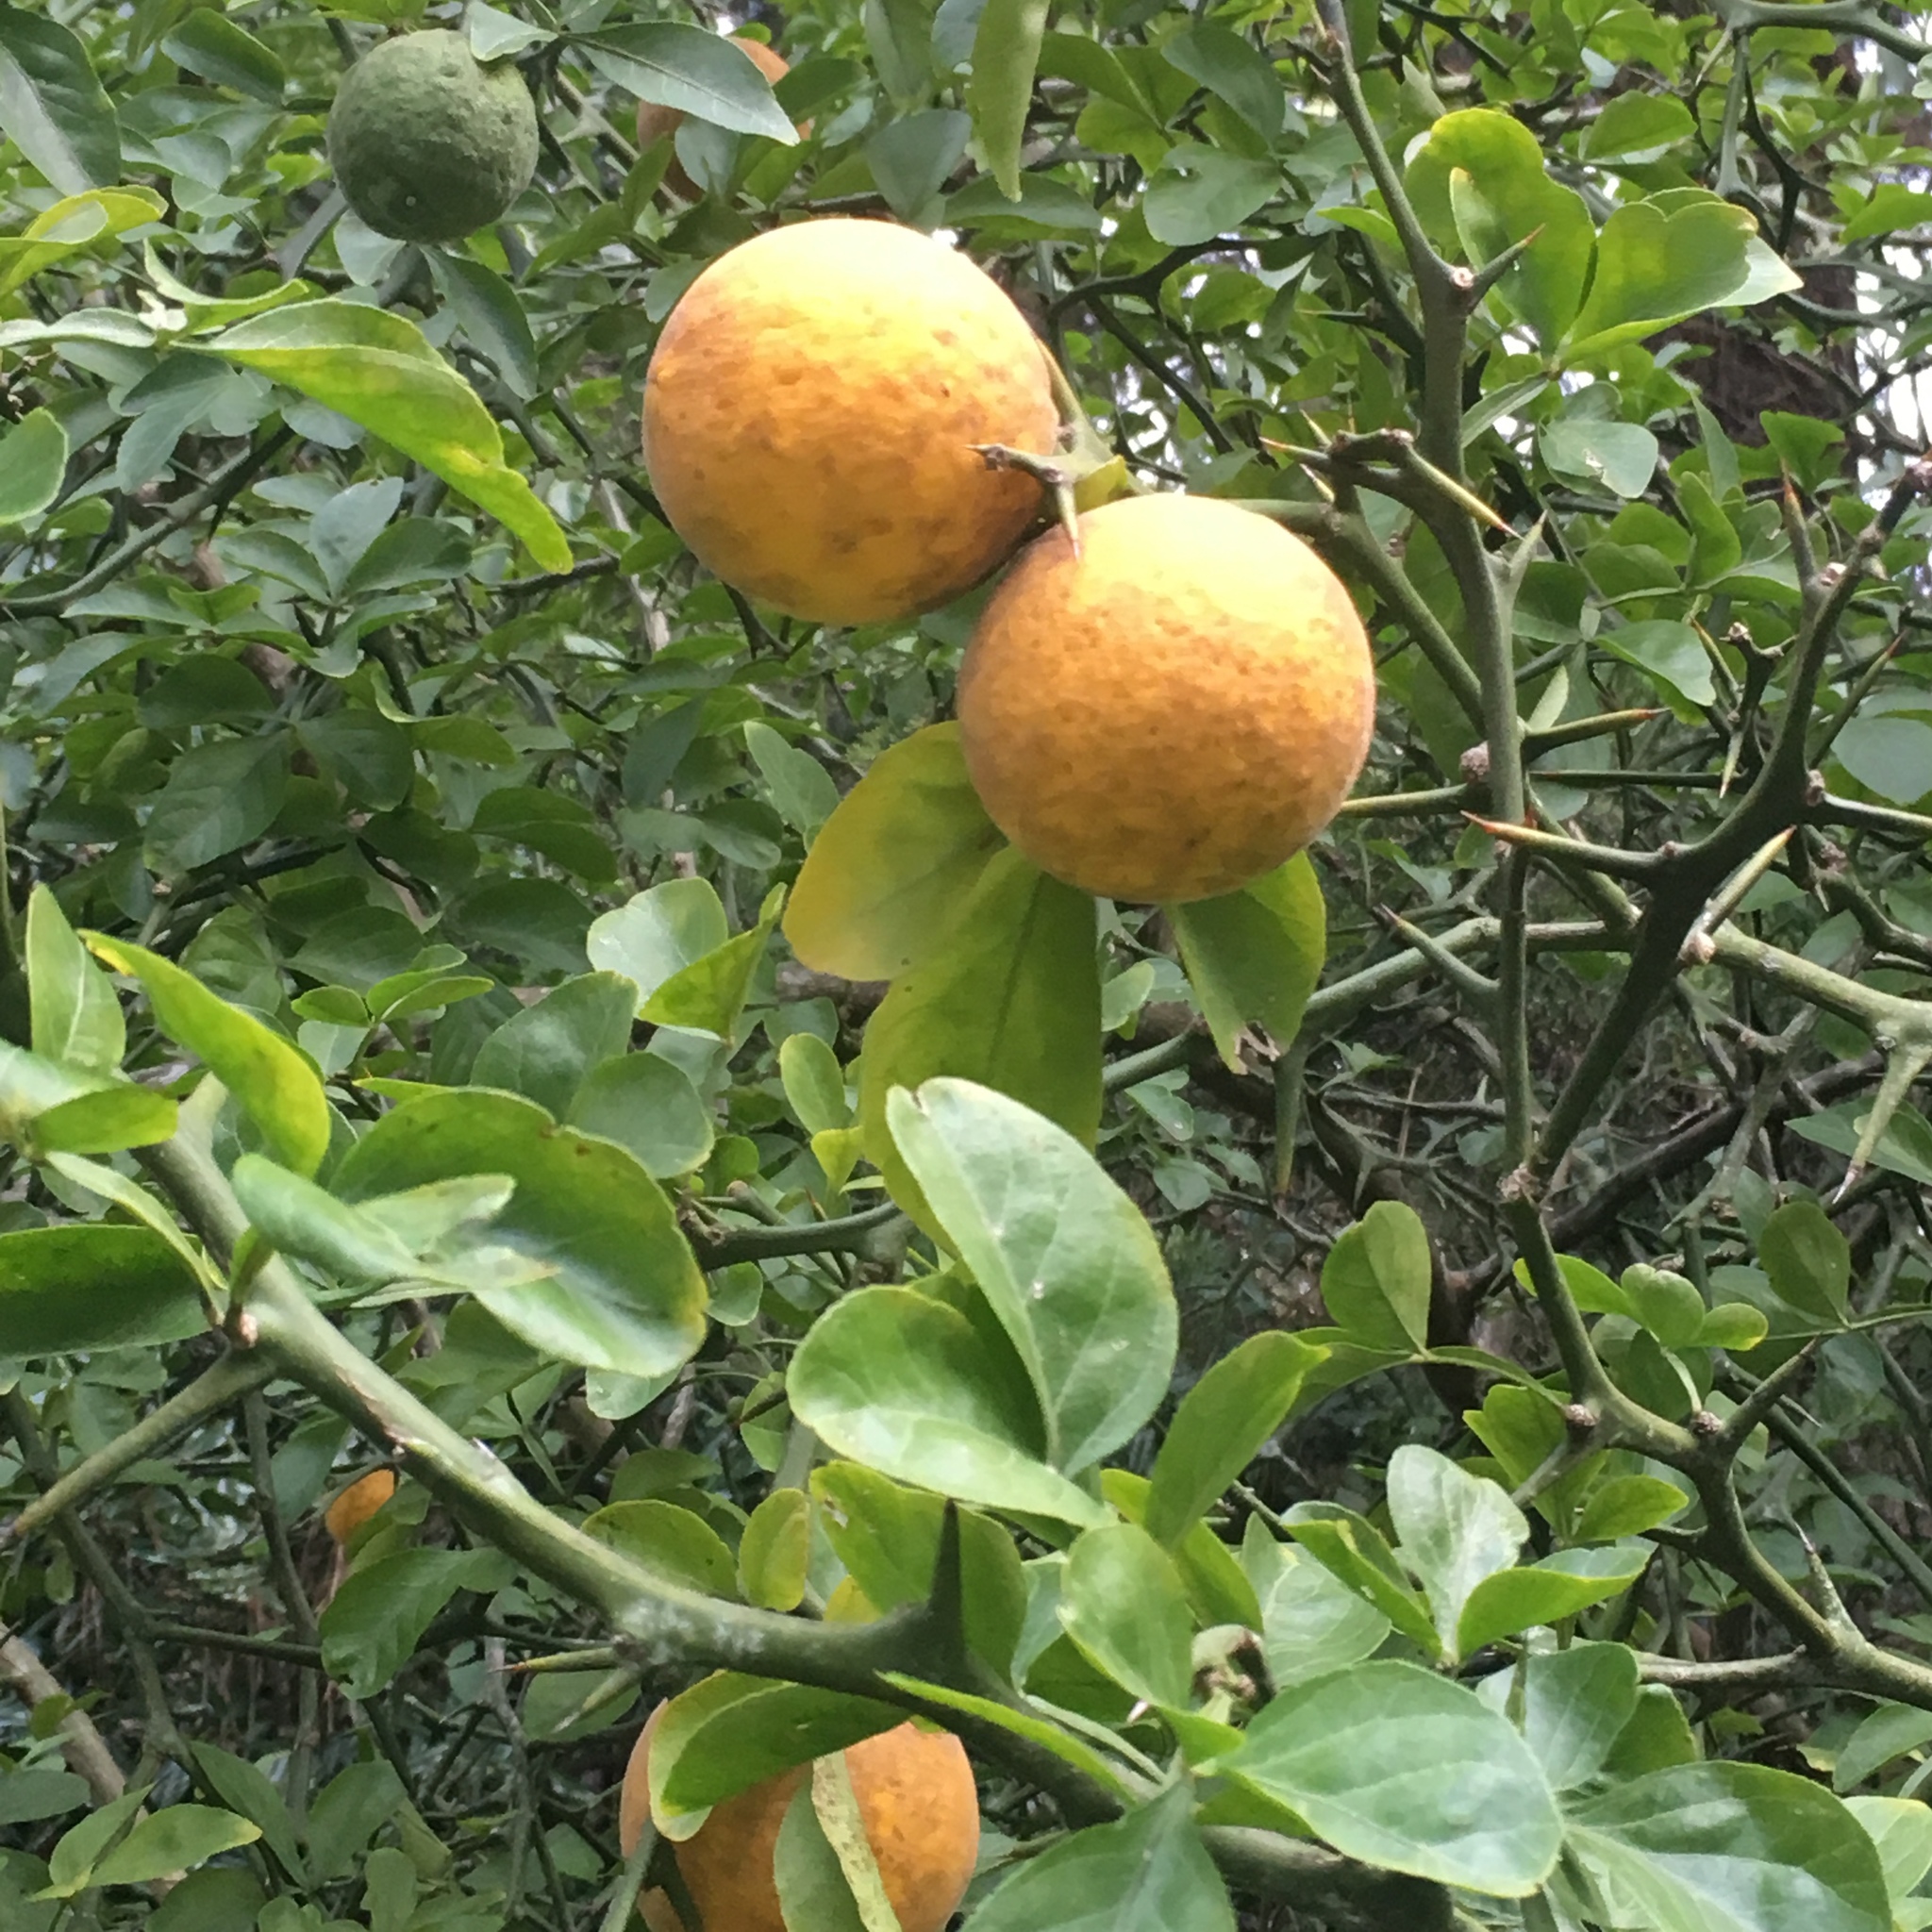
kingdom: Plantae
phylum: Tracheophyta
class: Magnoliopsida
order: Sapindales
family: Rutaceae
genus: Citrus
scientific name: Citrus trifoliata
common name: Japanese bitter-orange
